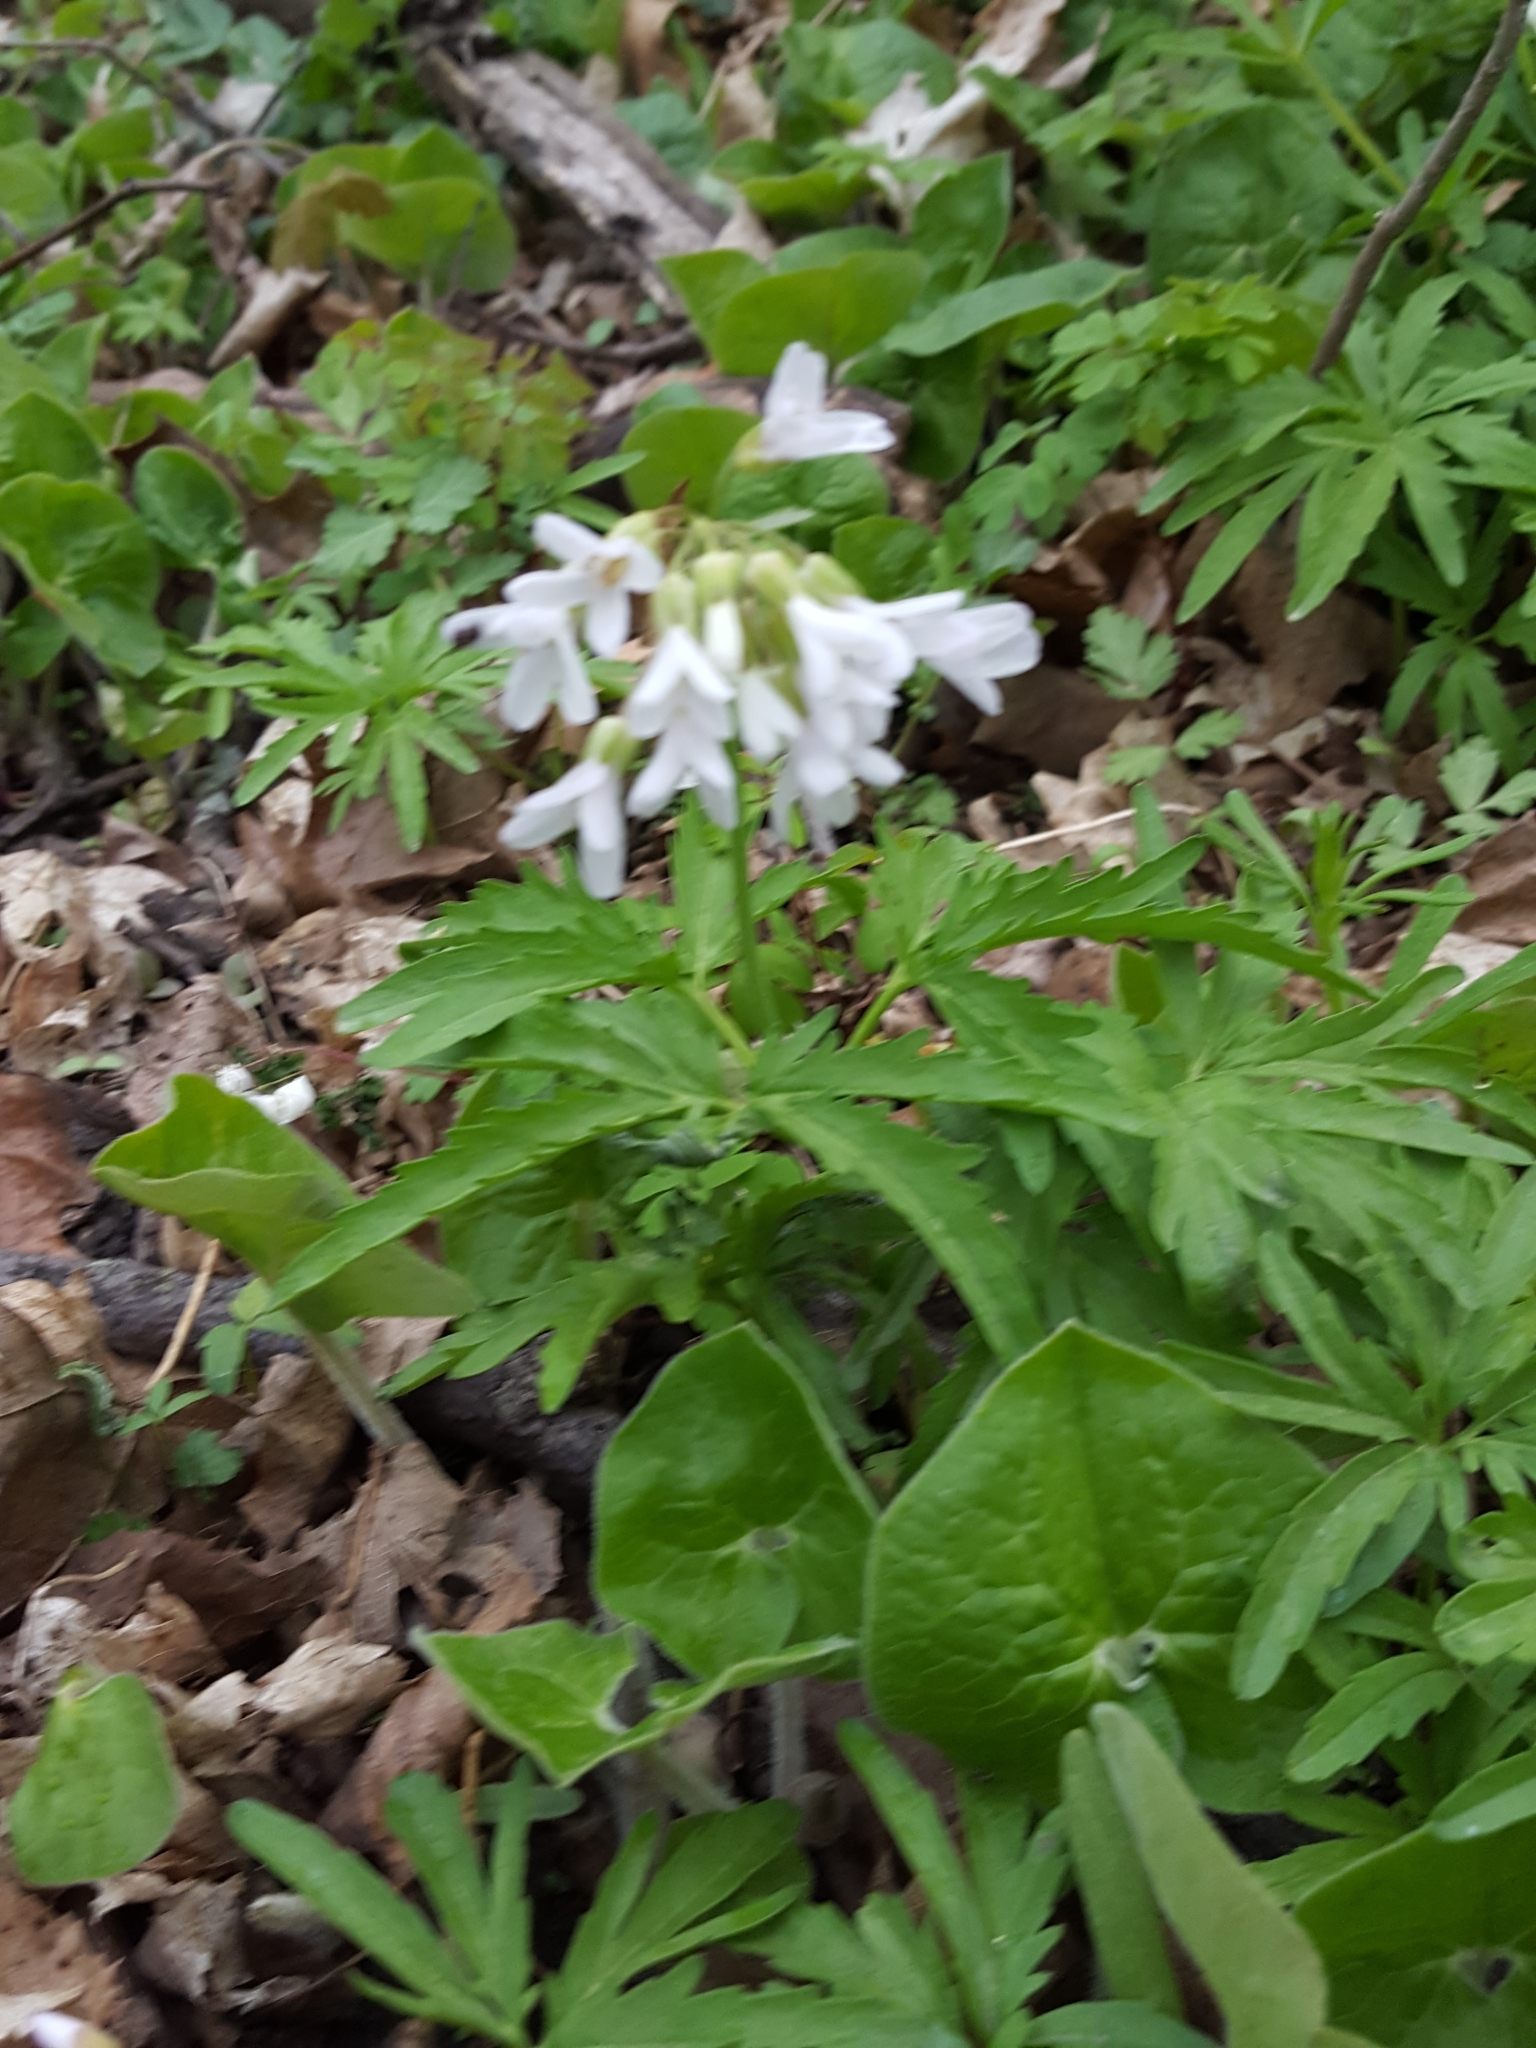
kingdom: Plantae
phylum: Tracheophyta
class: Magnoliopsida
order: Brassicales
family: Brassicaceae
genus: Cardamine
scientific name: Cardamine concatenata
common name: Cut-leaf toothcup
